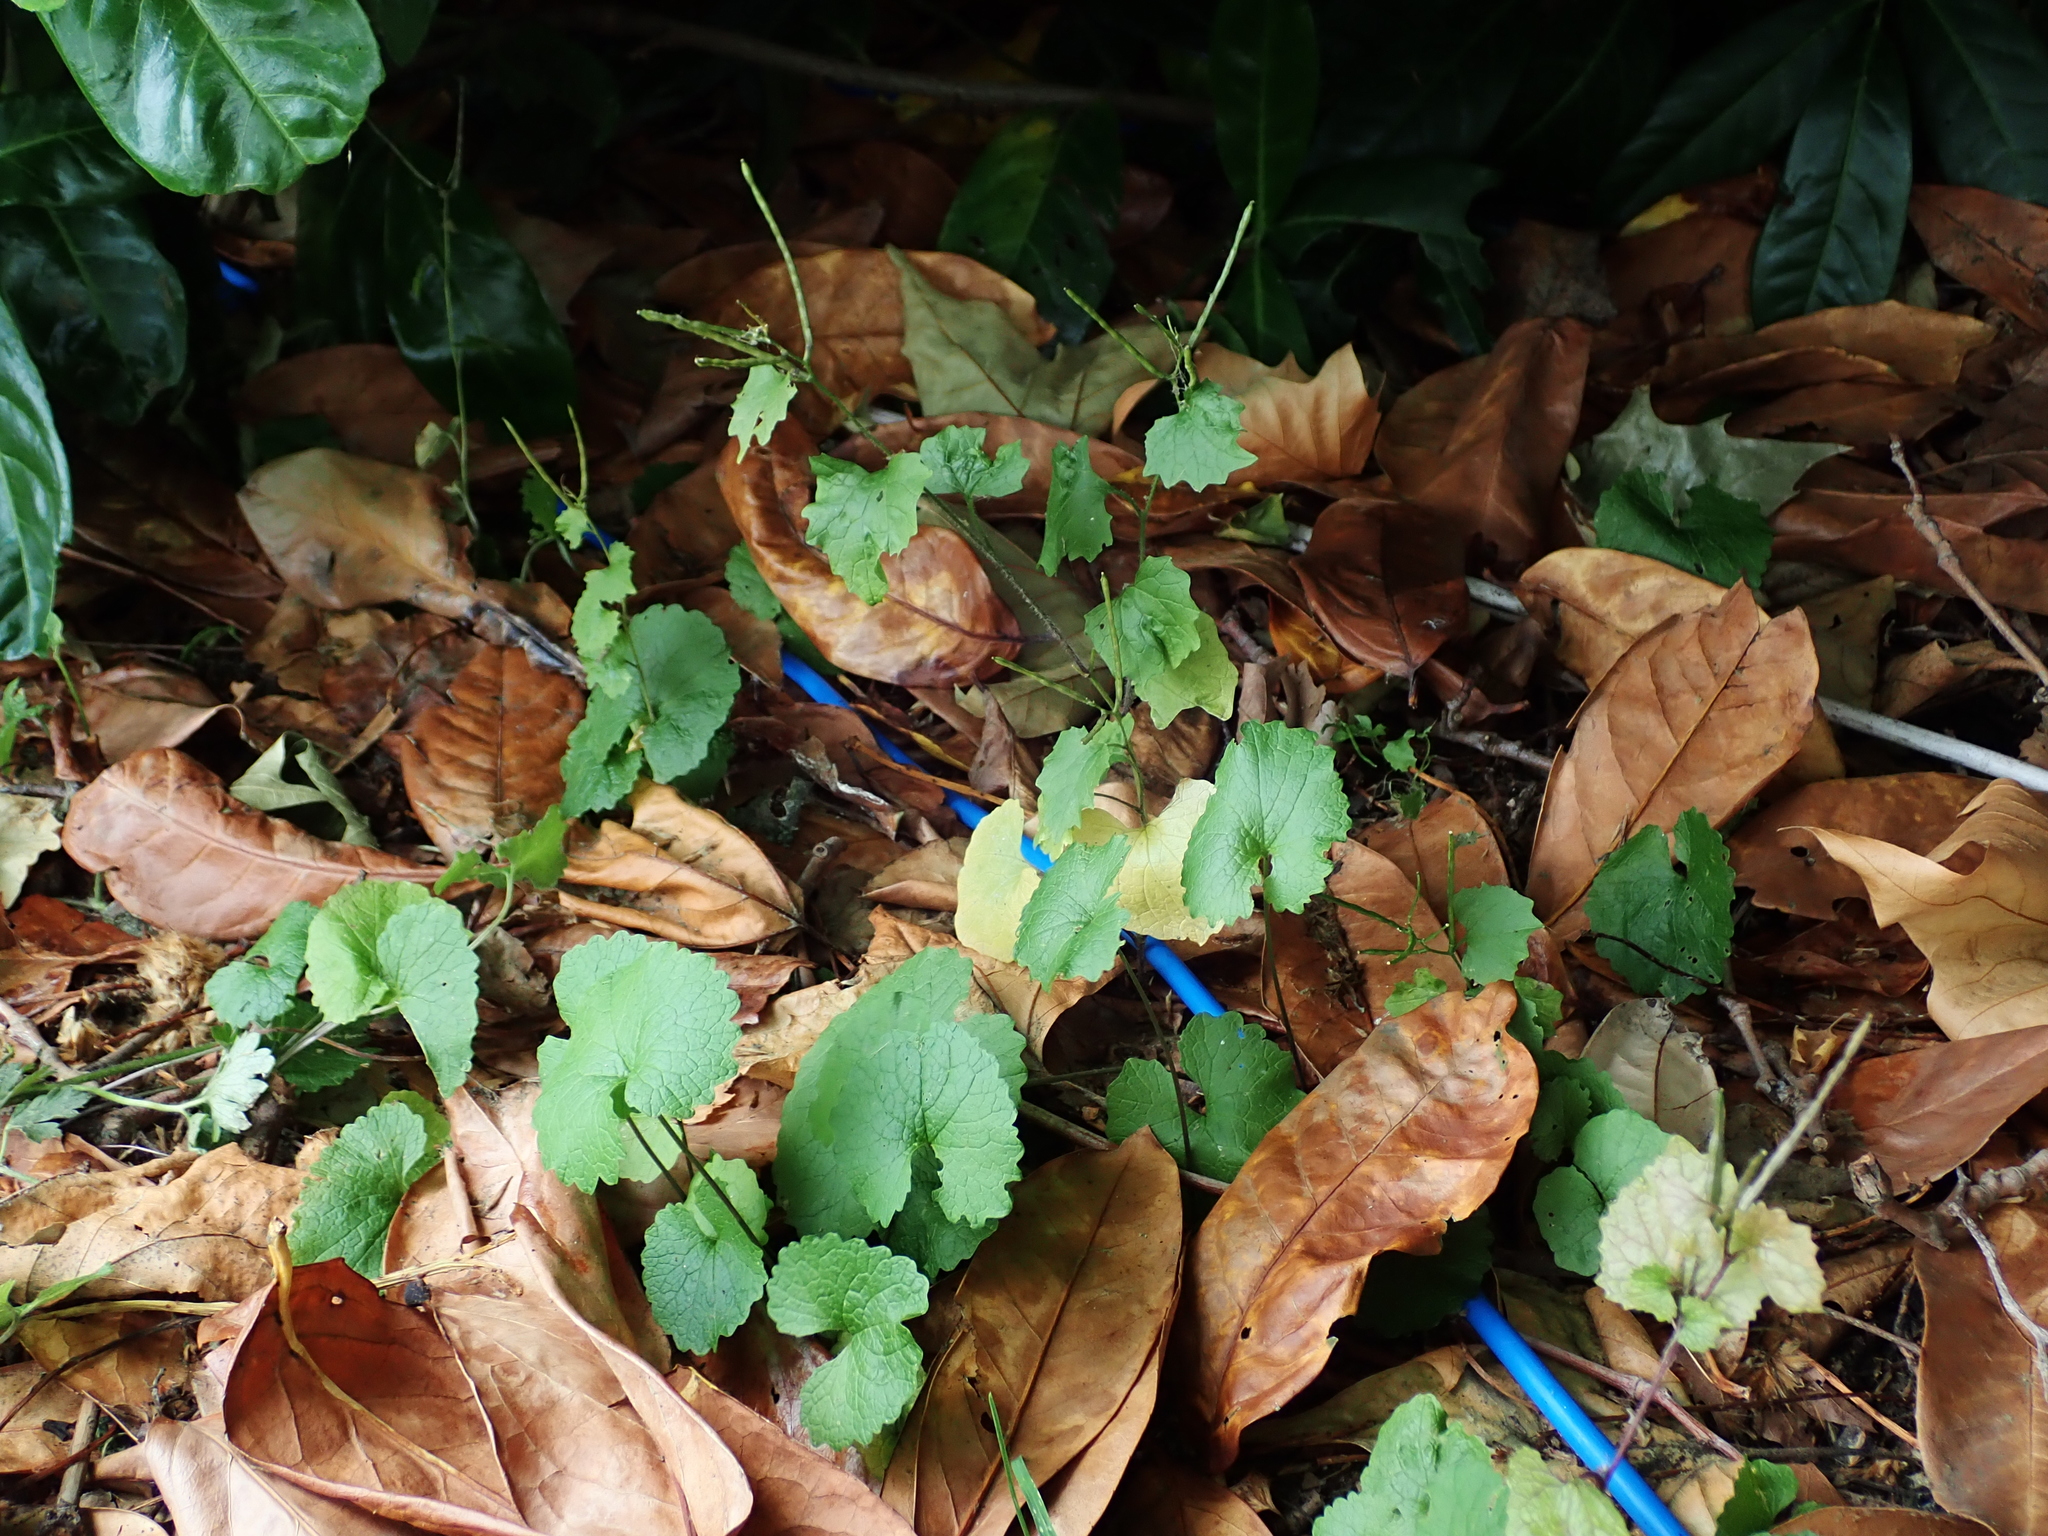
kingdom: Plantae
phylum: Tracheophyta
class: Magnoliopsida
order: Brassicales
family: Brassicaceae
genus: Alliaria
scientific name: Alliaria petiolata
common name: Garlic mustard
